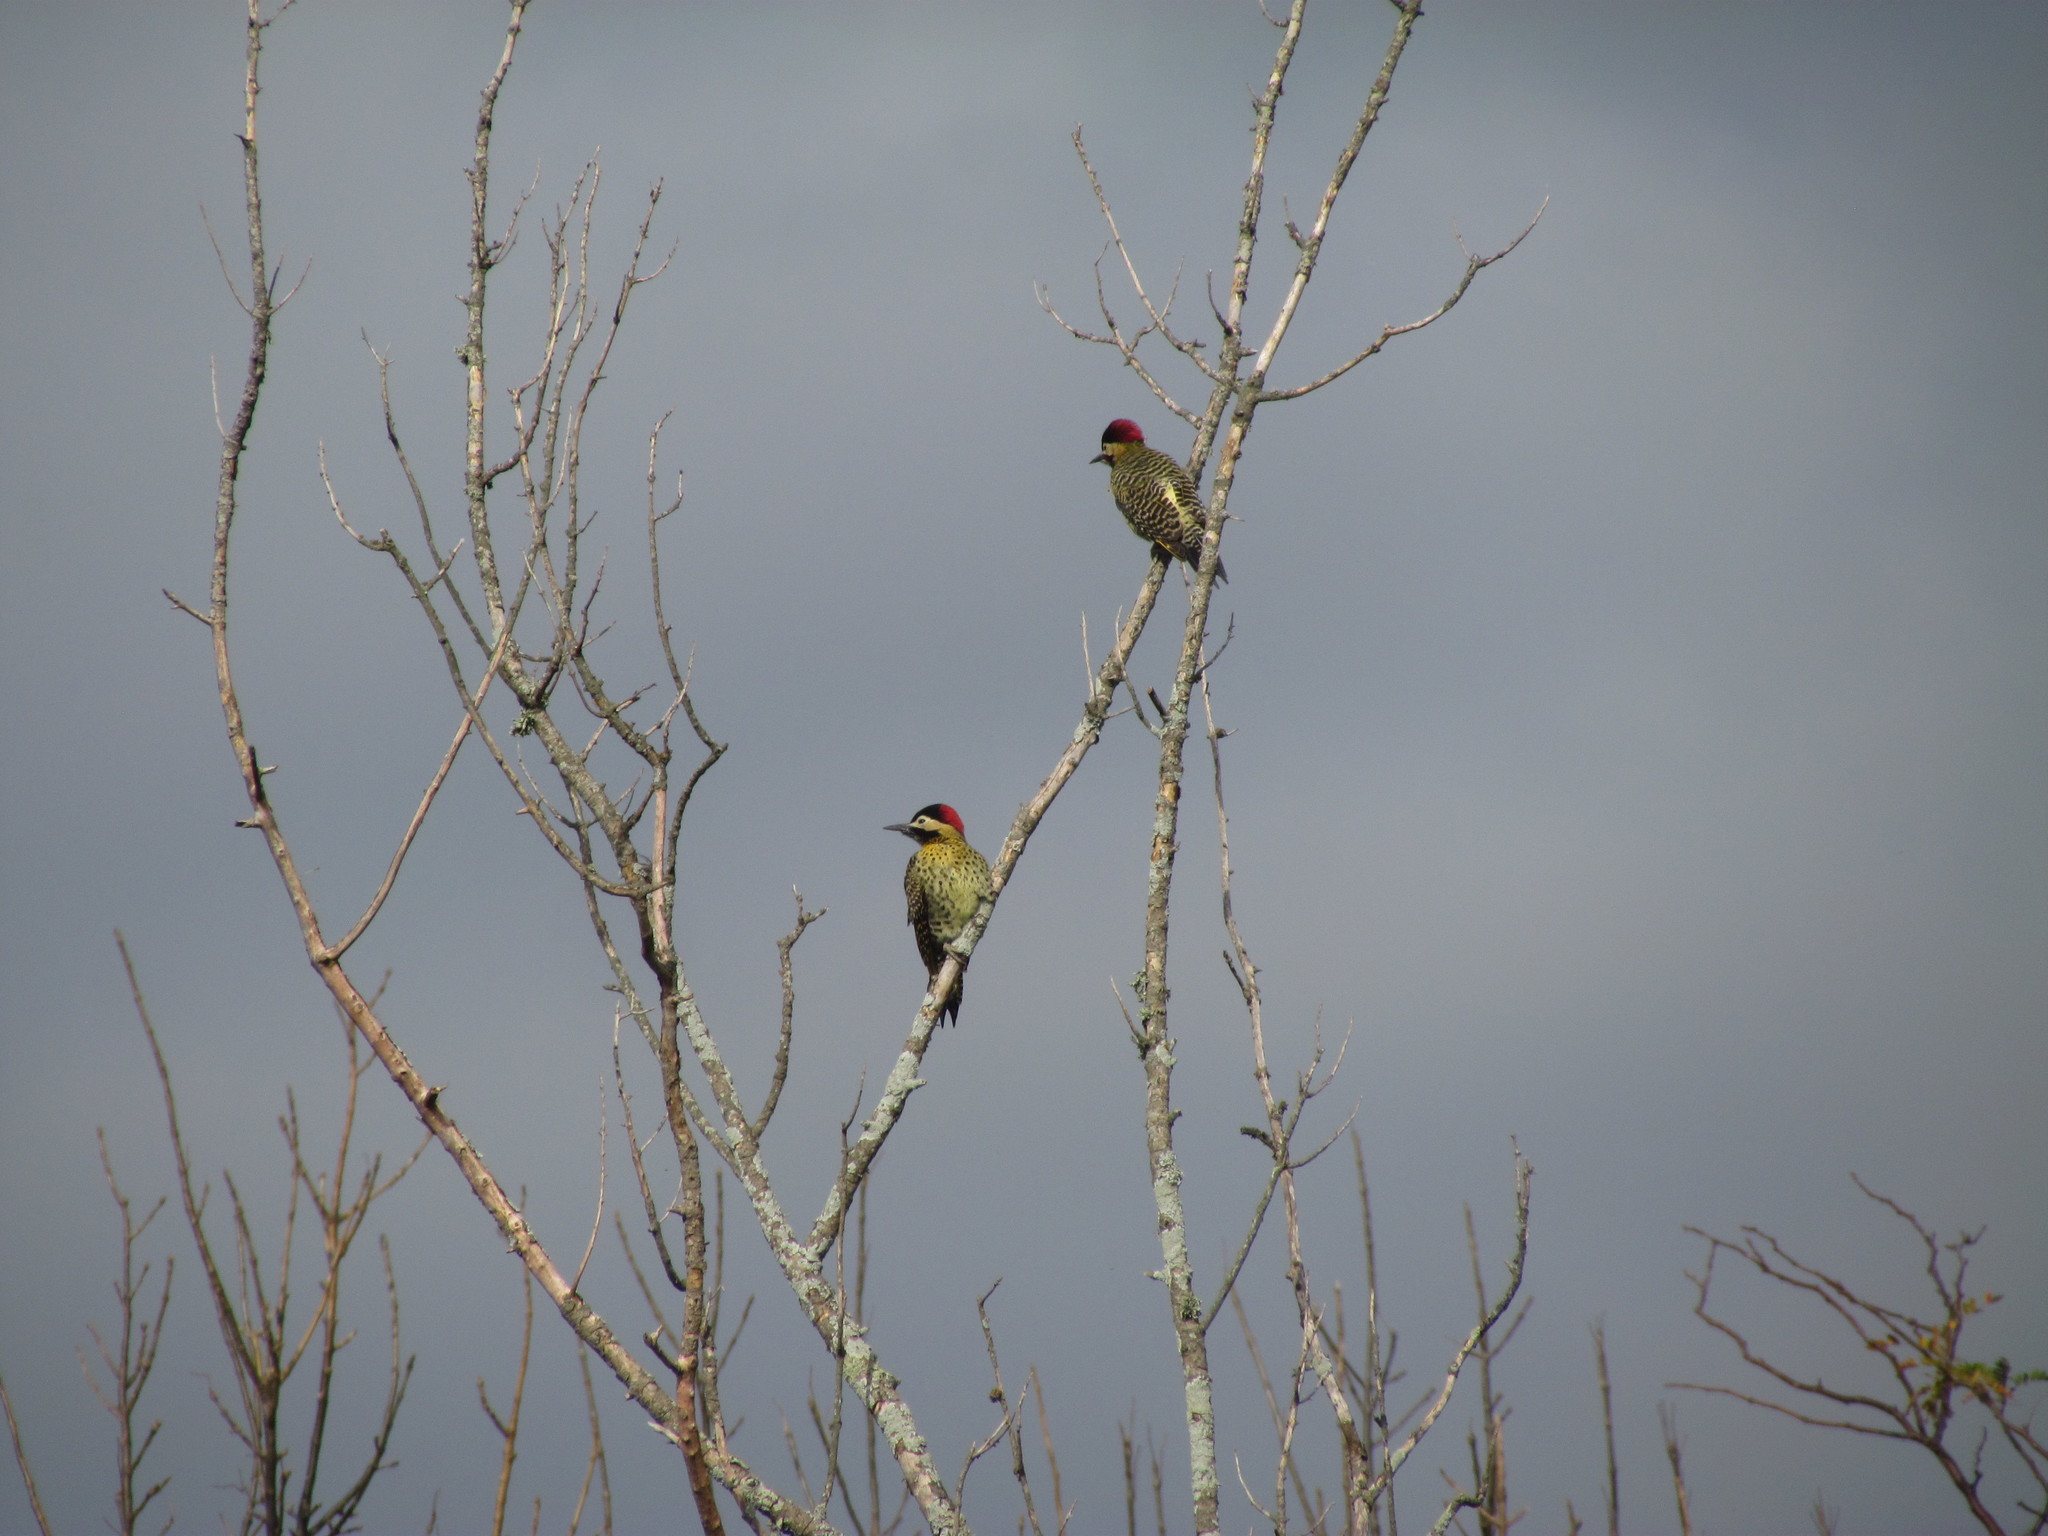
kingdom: Animalia
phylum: Chordata
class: Aves
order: Piciformes
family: Picidae
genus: Colaptes
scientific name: Colaptes melanochloros
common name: Green-barred woodpecker
